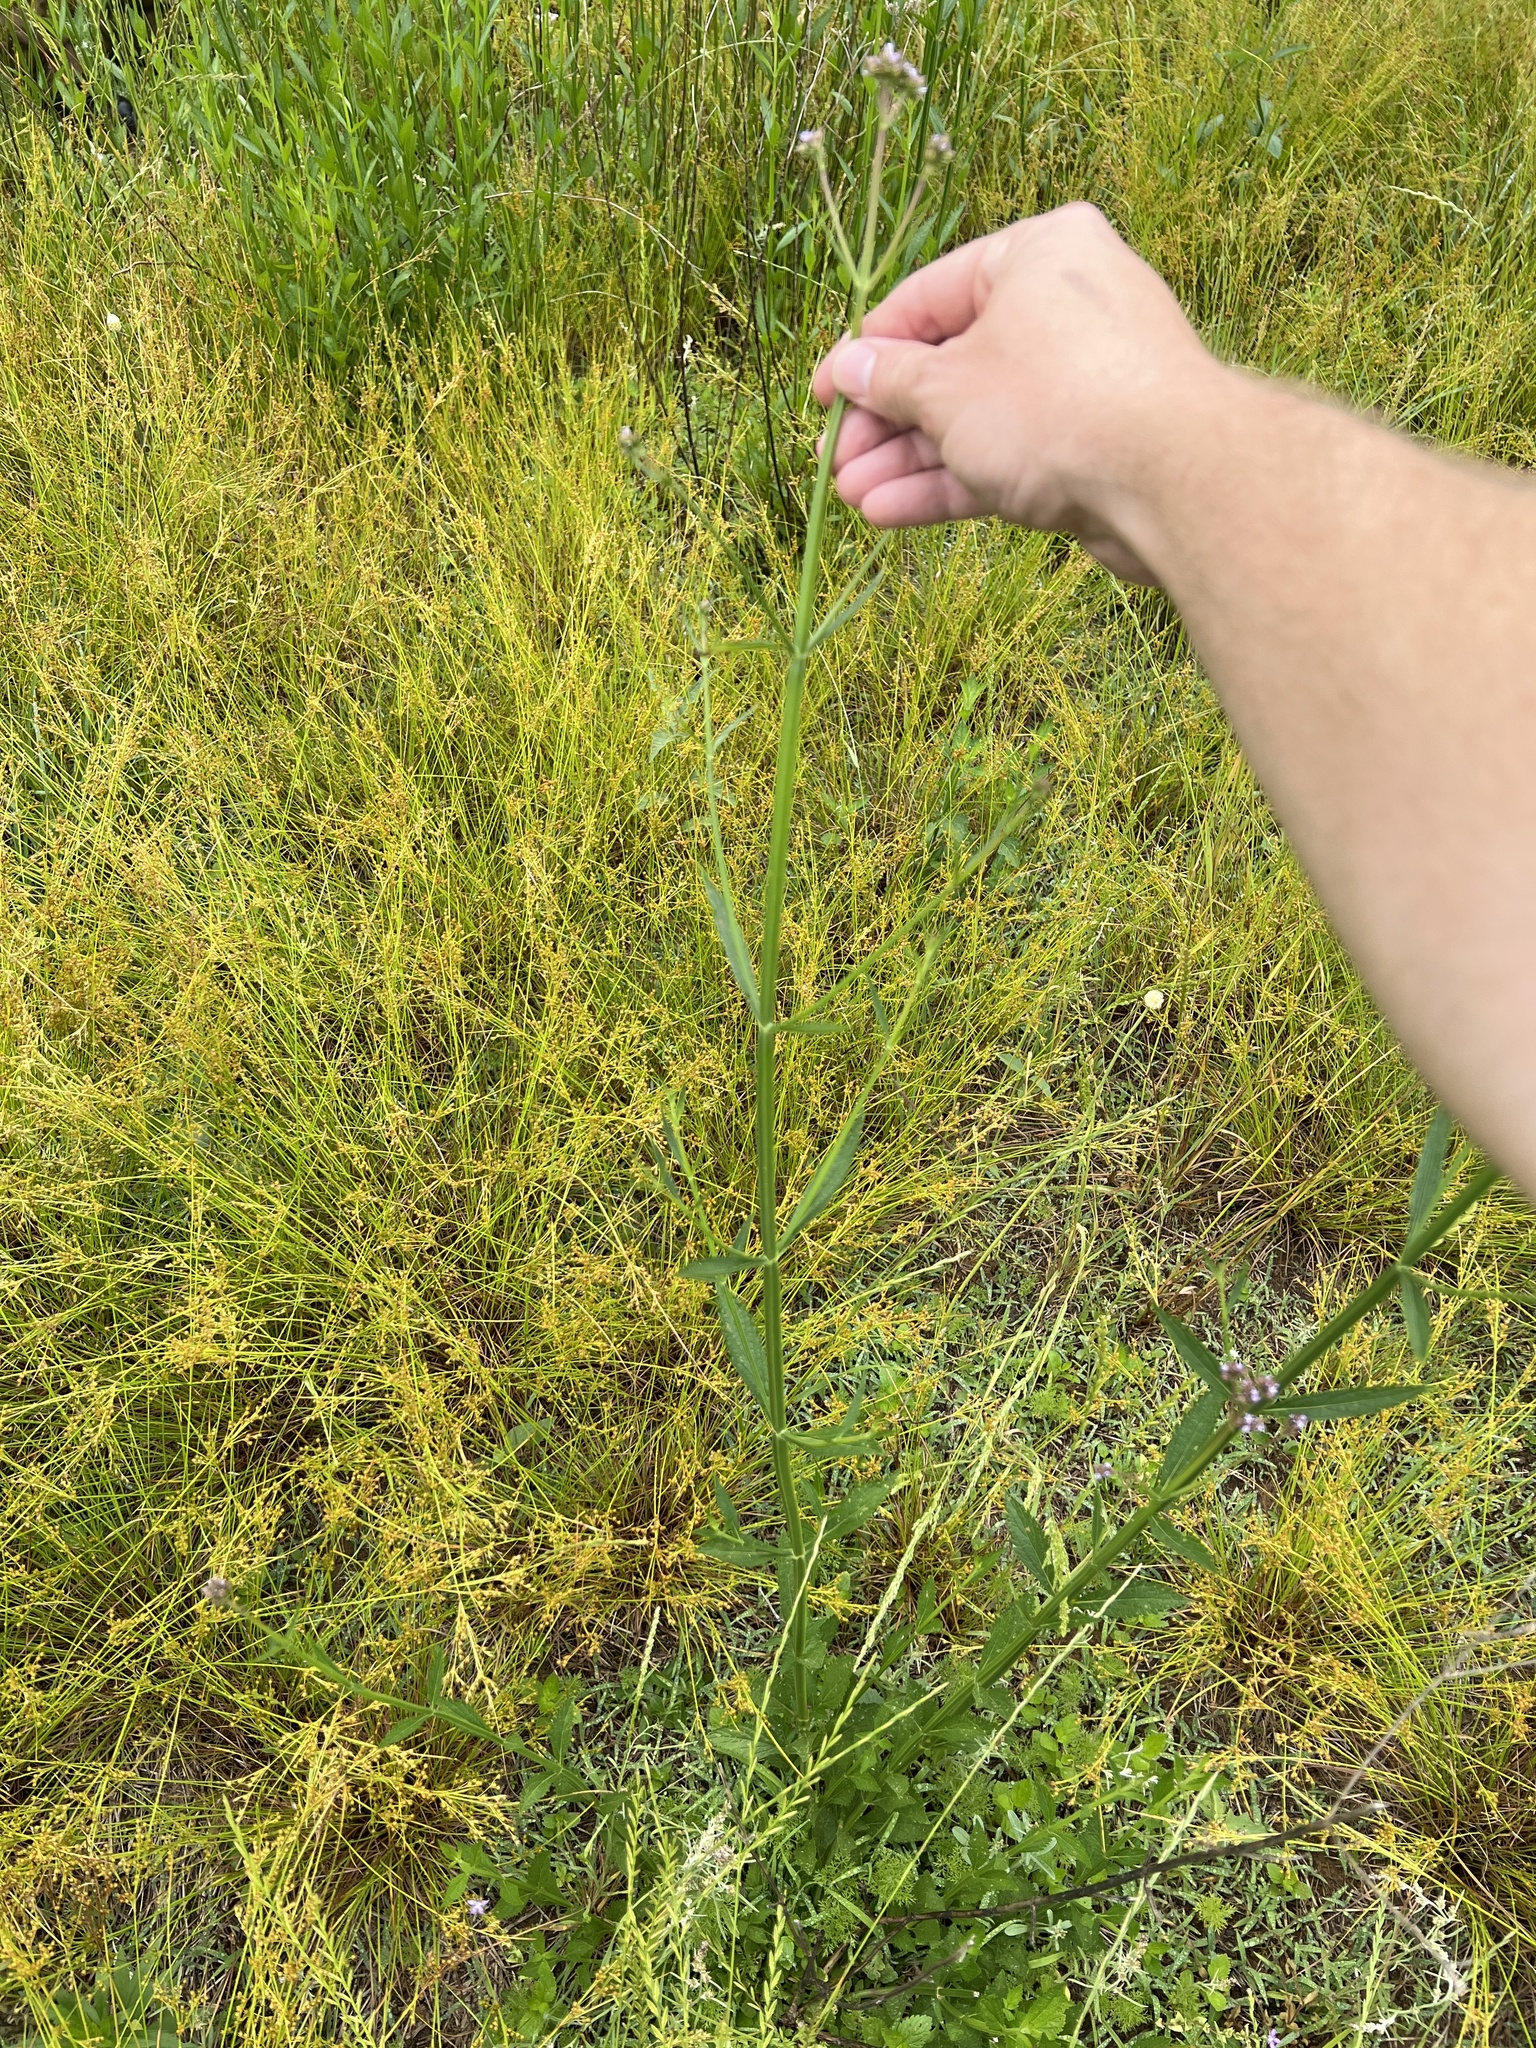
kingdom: Plantae
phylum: Tracheophyta
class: Magnoliopsida
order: Lamiales
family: Verbenaceae
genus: Verbena
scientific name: Verbena brasiliensis
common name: Brazilian vervain
